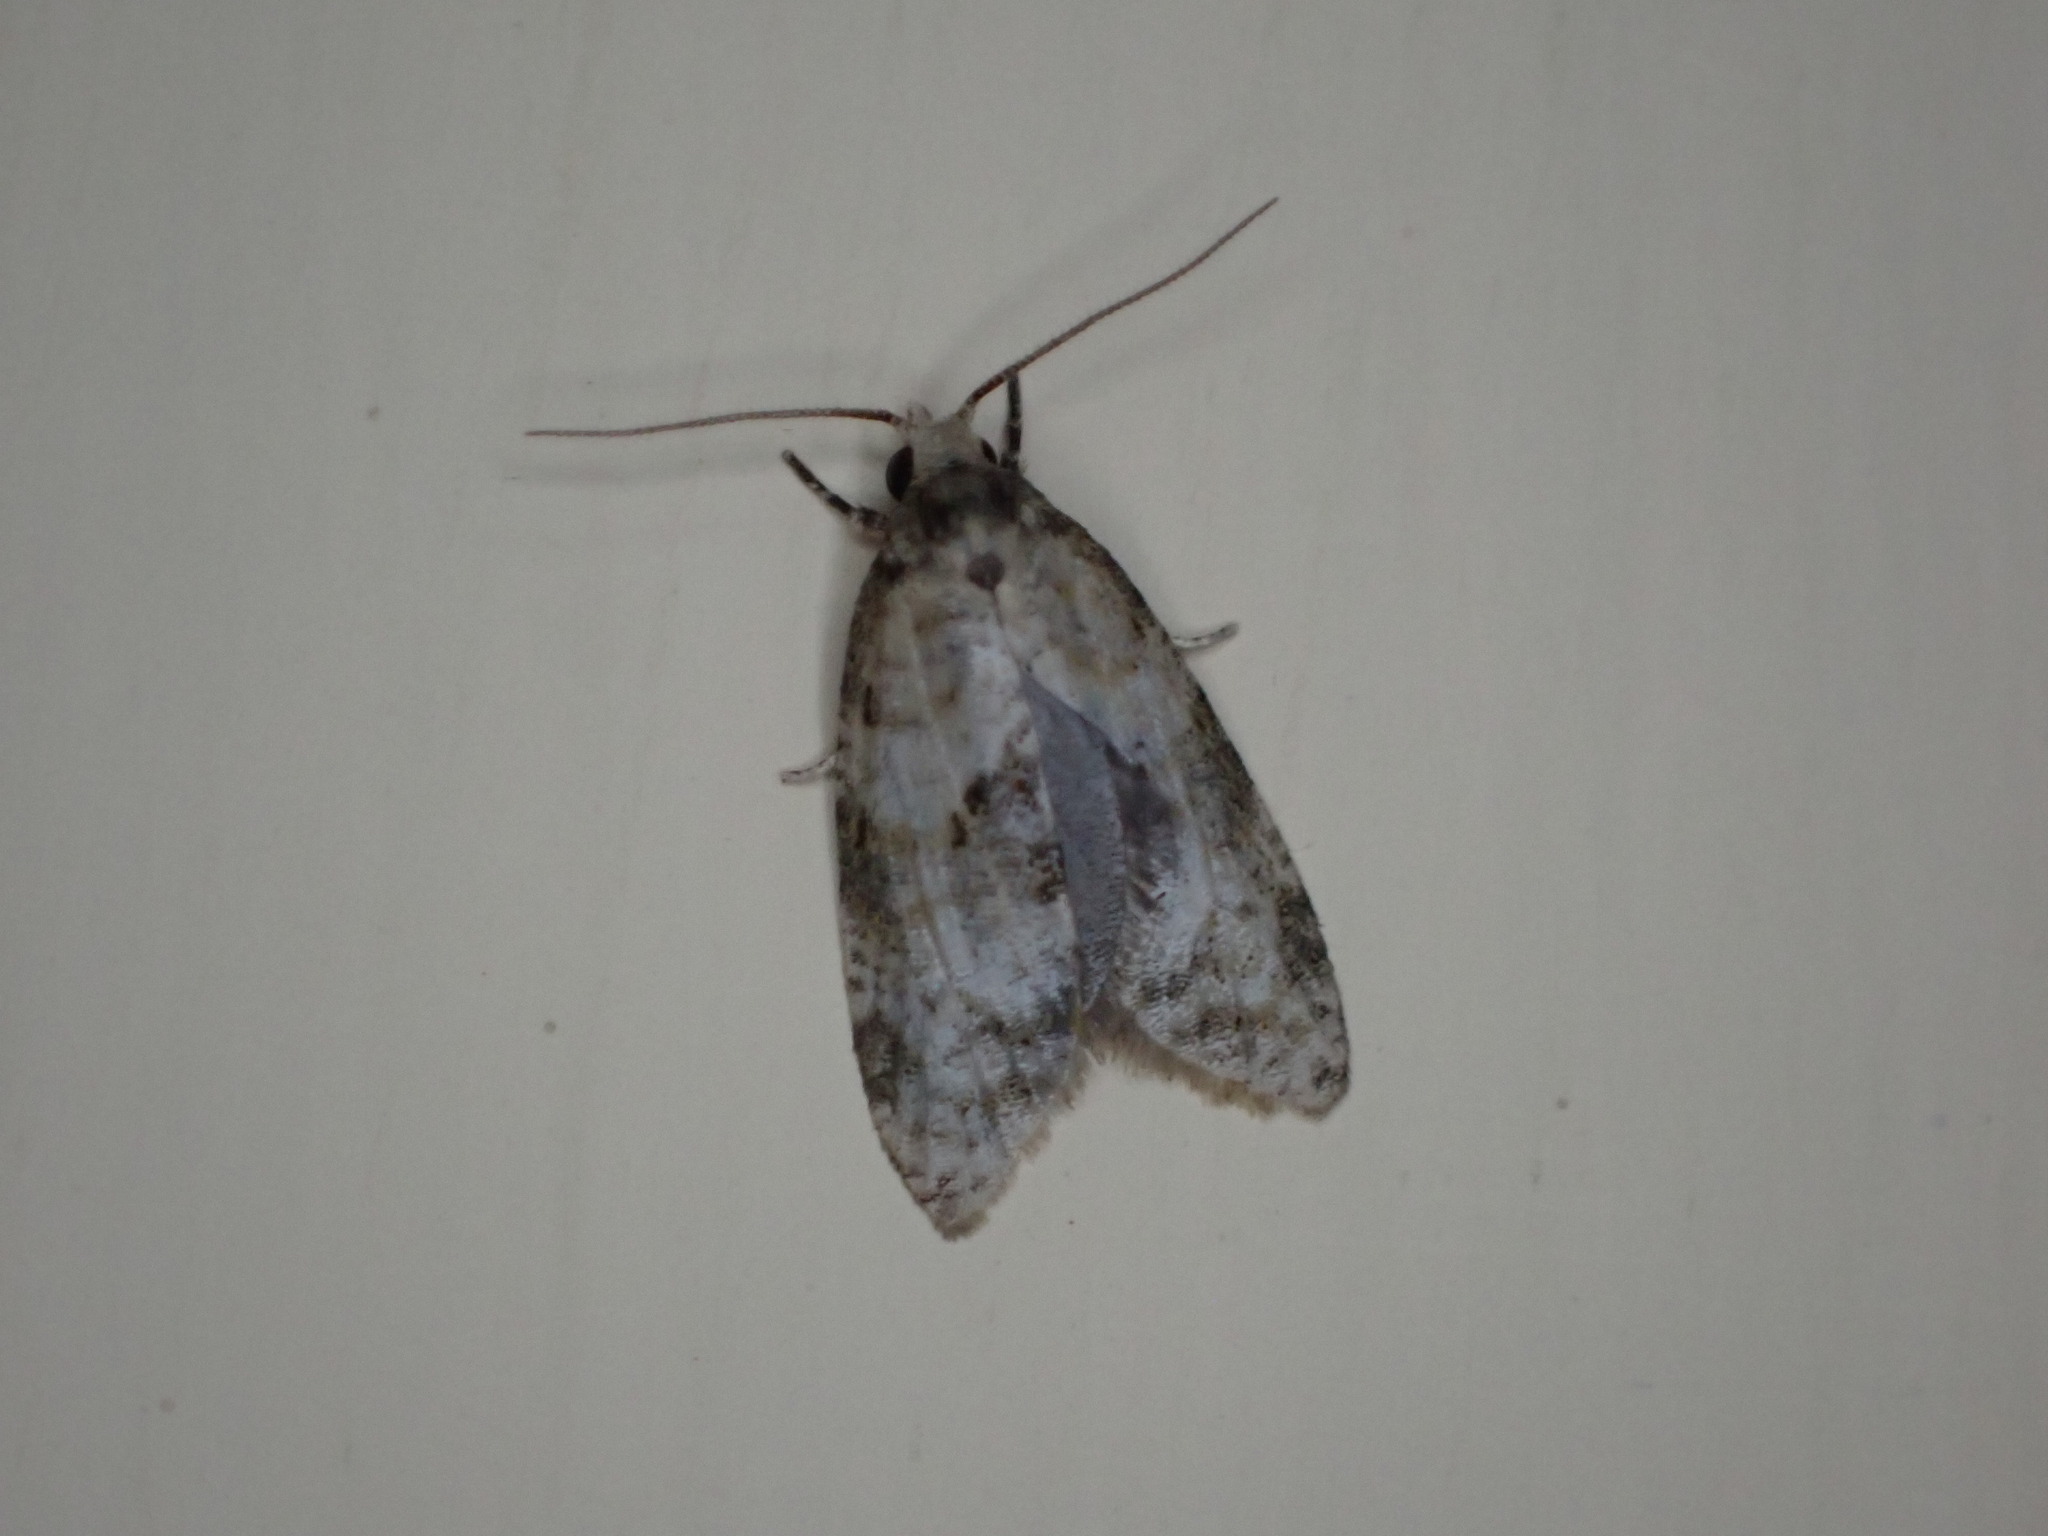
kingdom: Animalia
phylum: Arthropoda
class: Insecta
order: Lepidoptera
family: Tortricidae
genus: Dipterina
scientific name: Dipterina imbriferana
